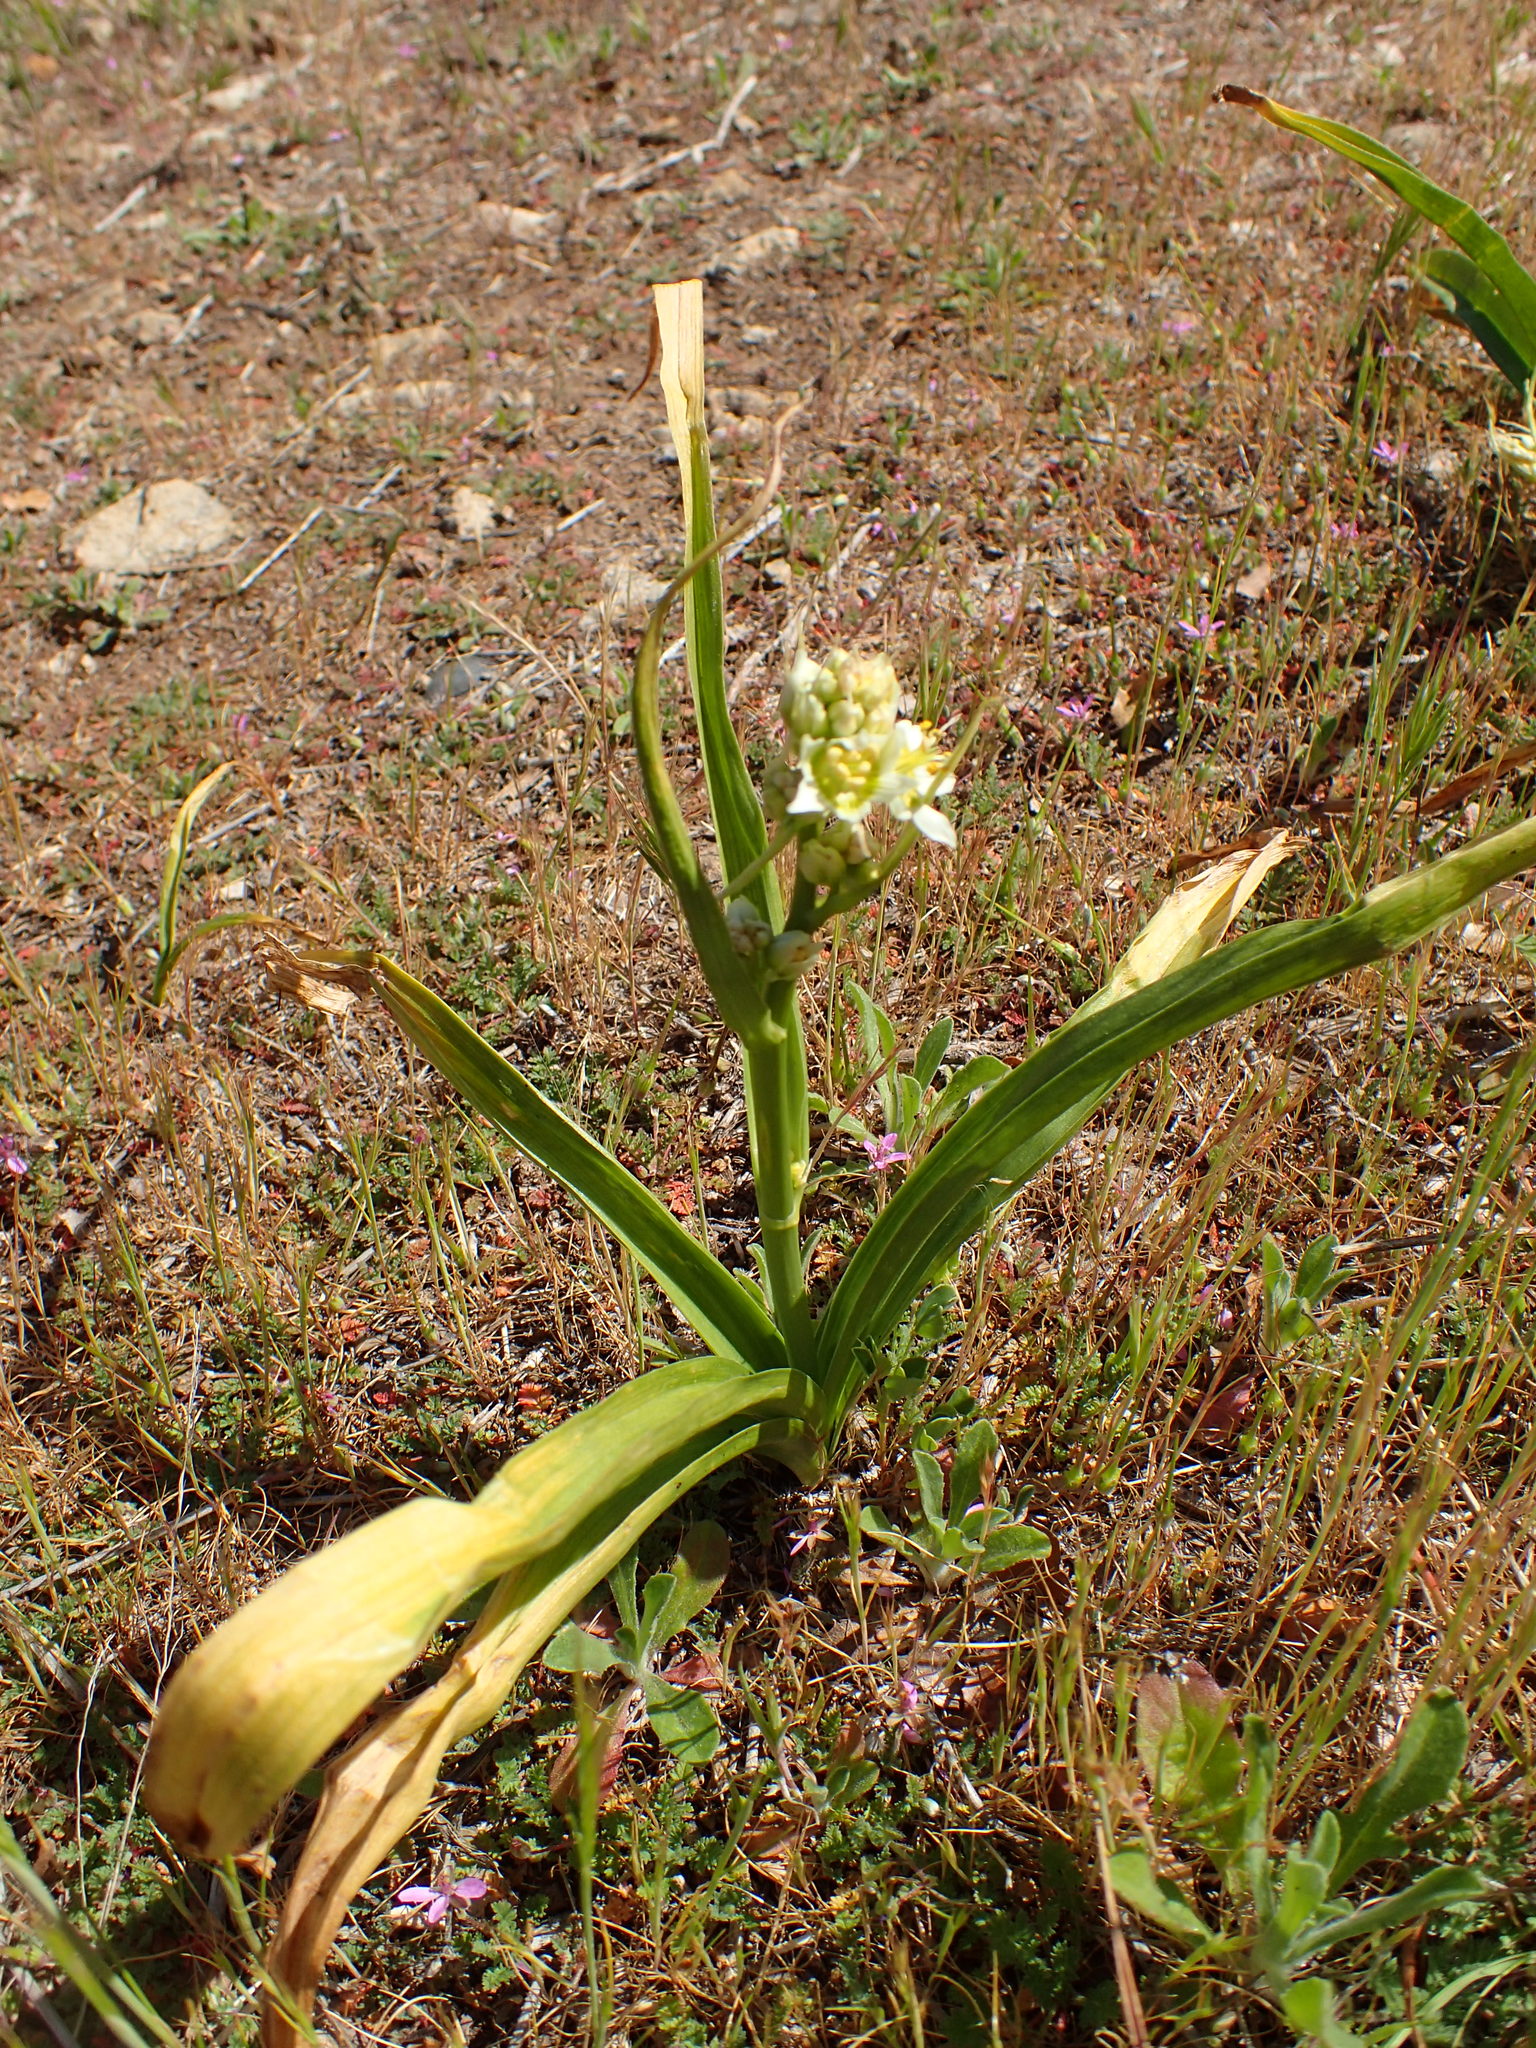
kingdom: Plantae
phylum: Tracheophyta
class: Liliopsida
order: Liliales
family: Melanthiaceae
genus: Toxicoscordion
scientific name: Toxicoscordion fremontii
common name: Fremont's death camas
